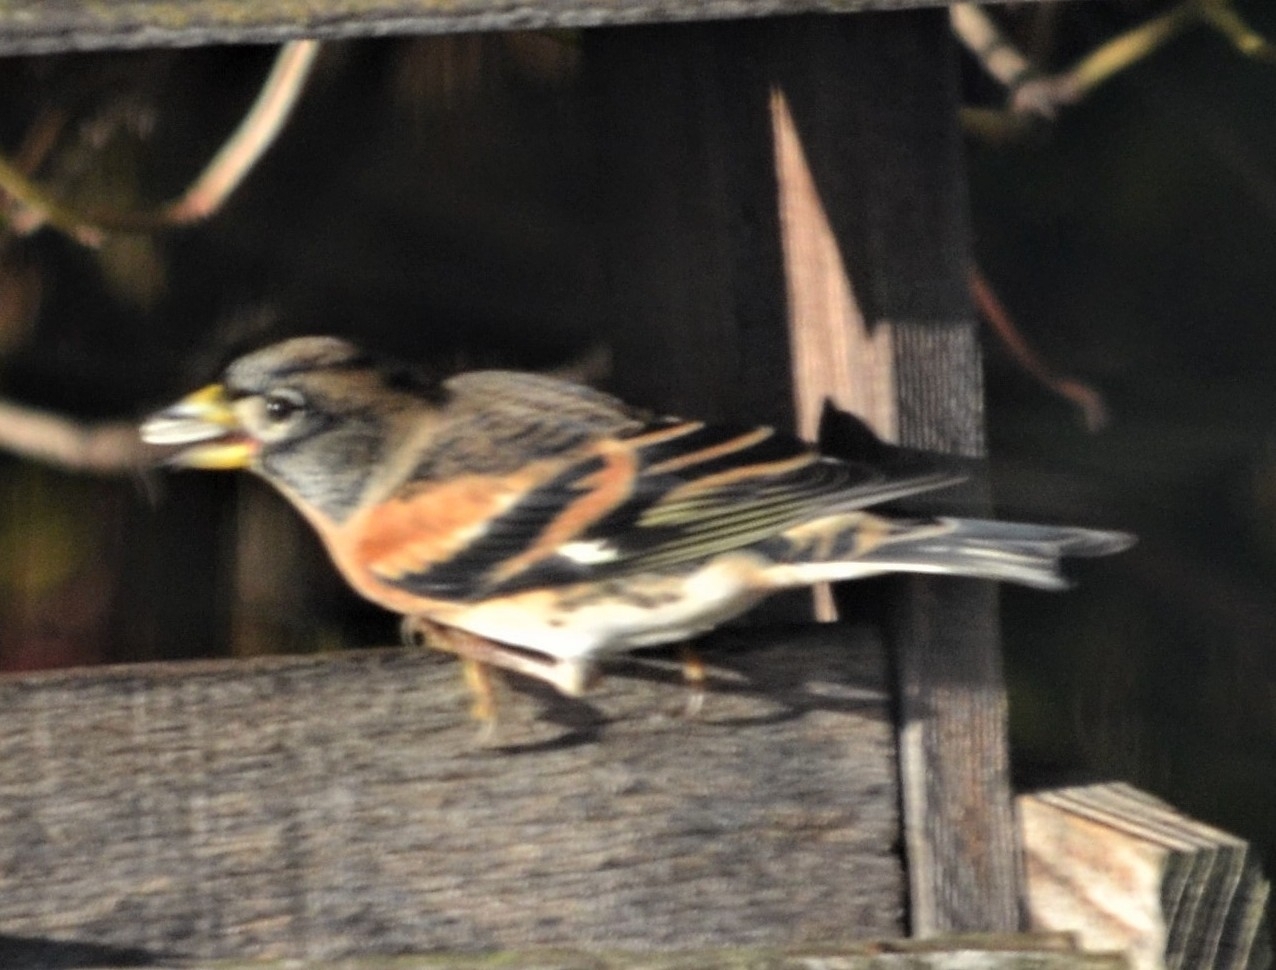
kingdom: Animalia
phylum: Chordata
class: Aves
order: Passeriformes
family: Fringillidae
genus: Fringilla
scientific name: Fringilla montifringilla
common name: Brambling
